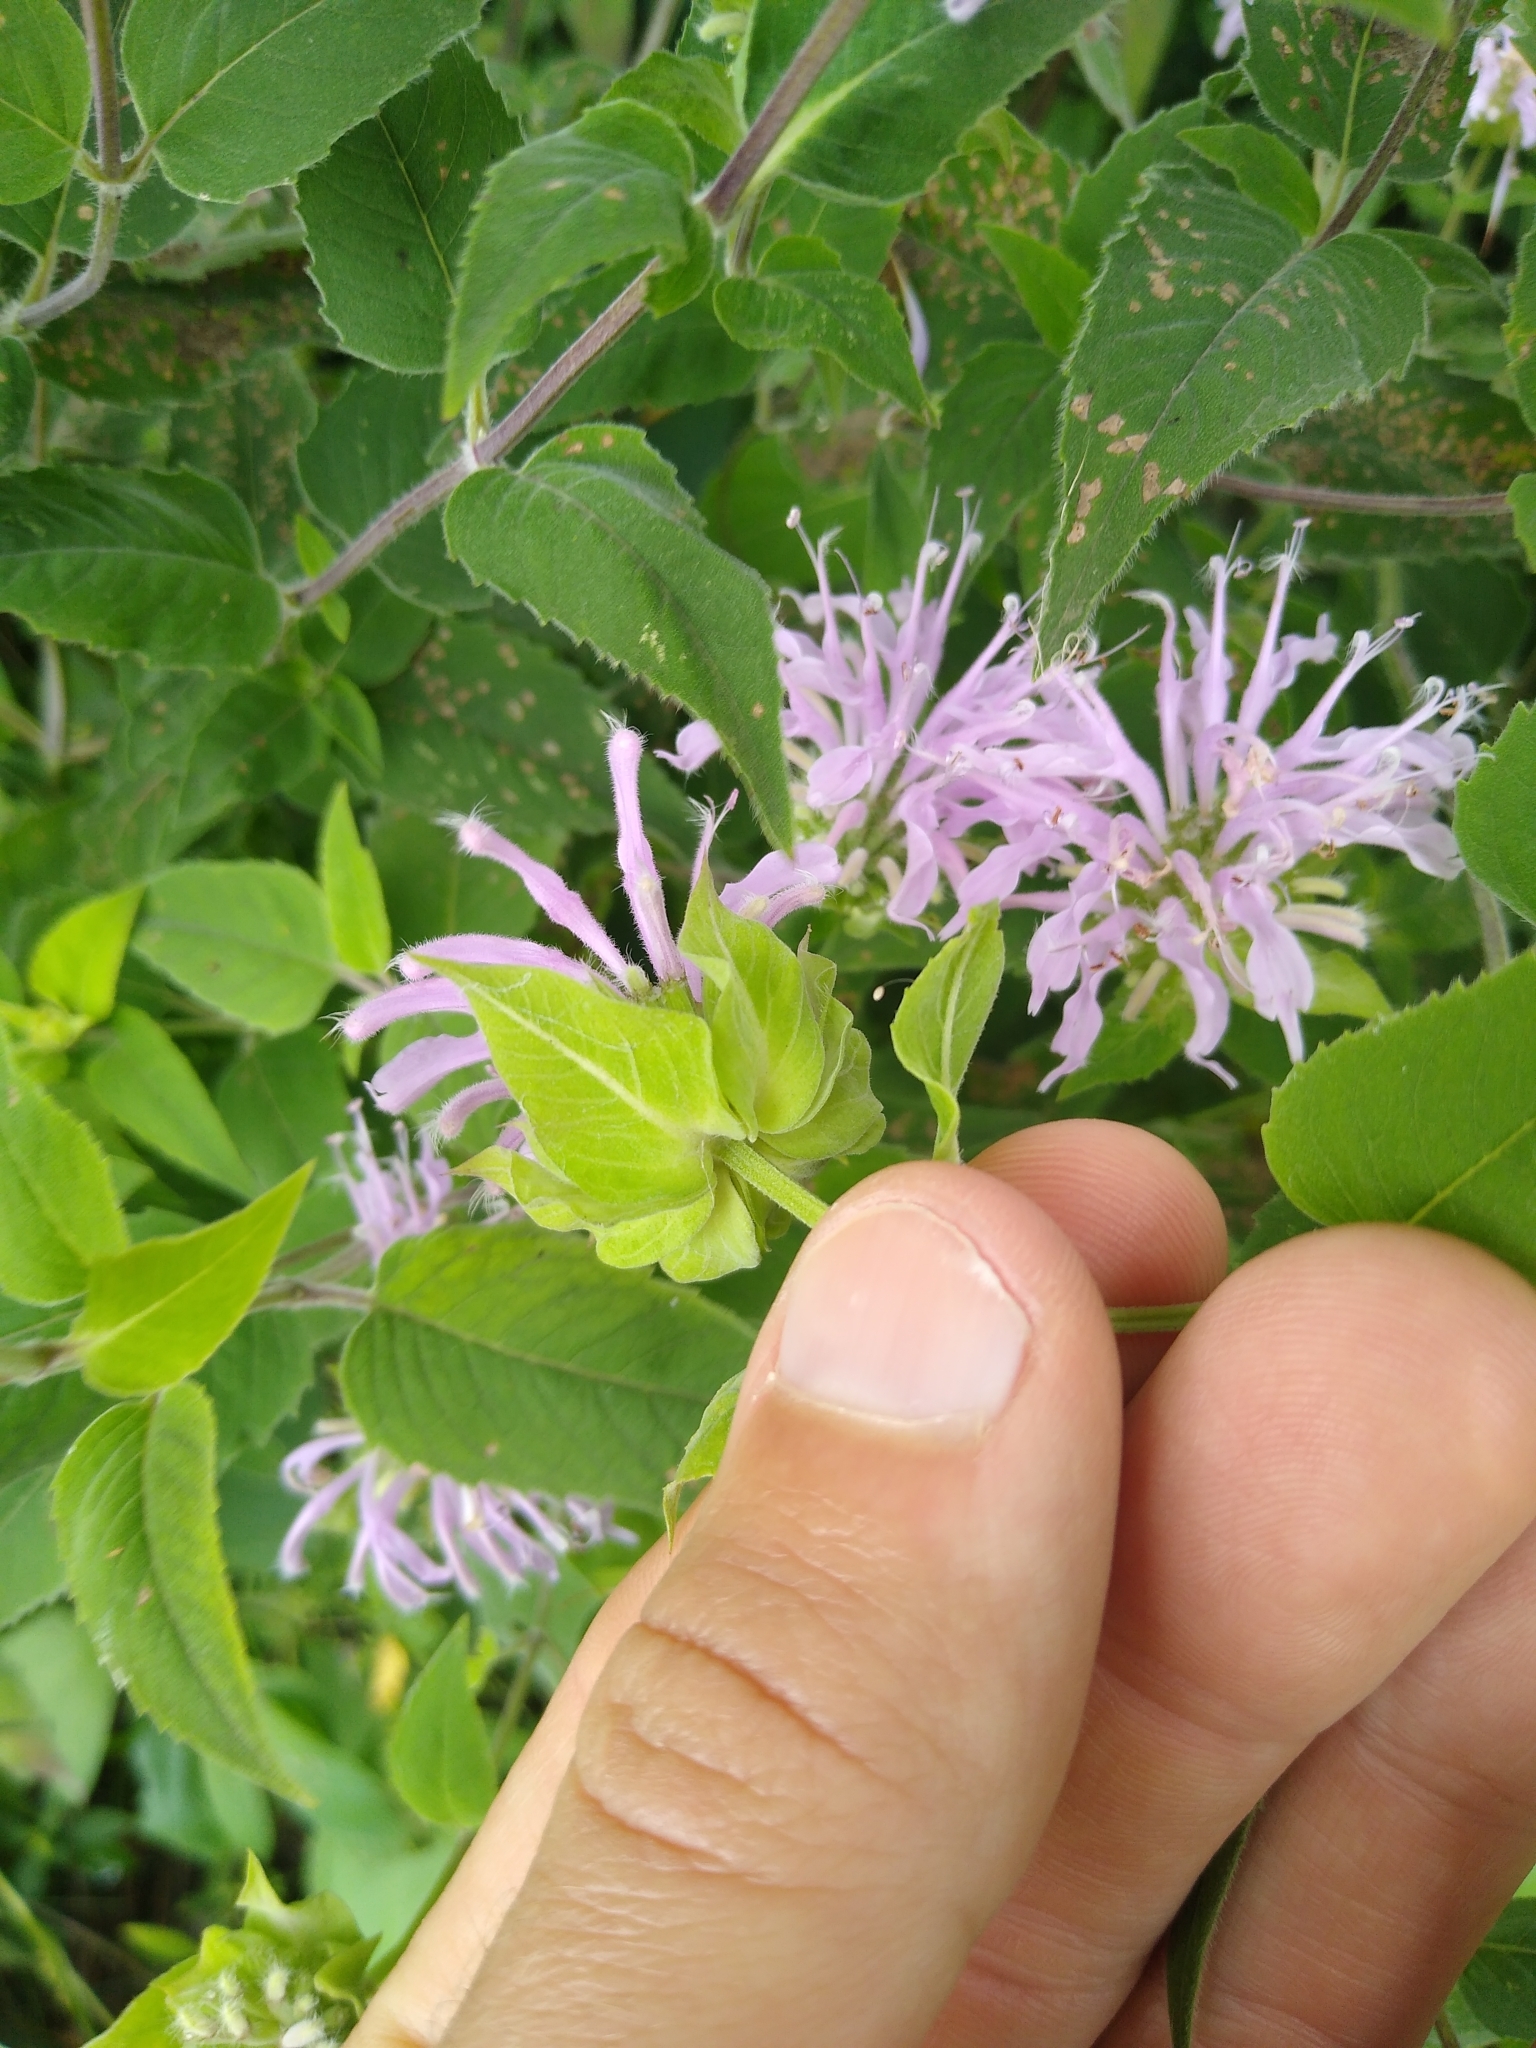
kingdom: Plantae
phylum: Tracheophyta
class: Magnoliopsida
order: Lamiales
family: Lamiaceae
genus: Monarda
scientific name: Monarda fistulosa
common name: Purple beebalm
